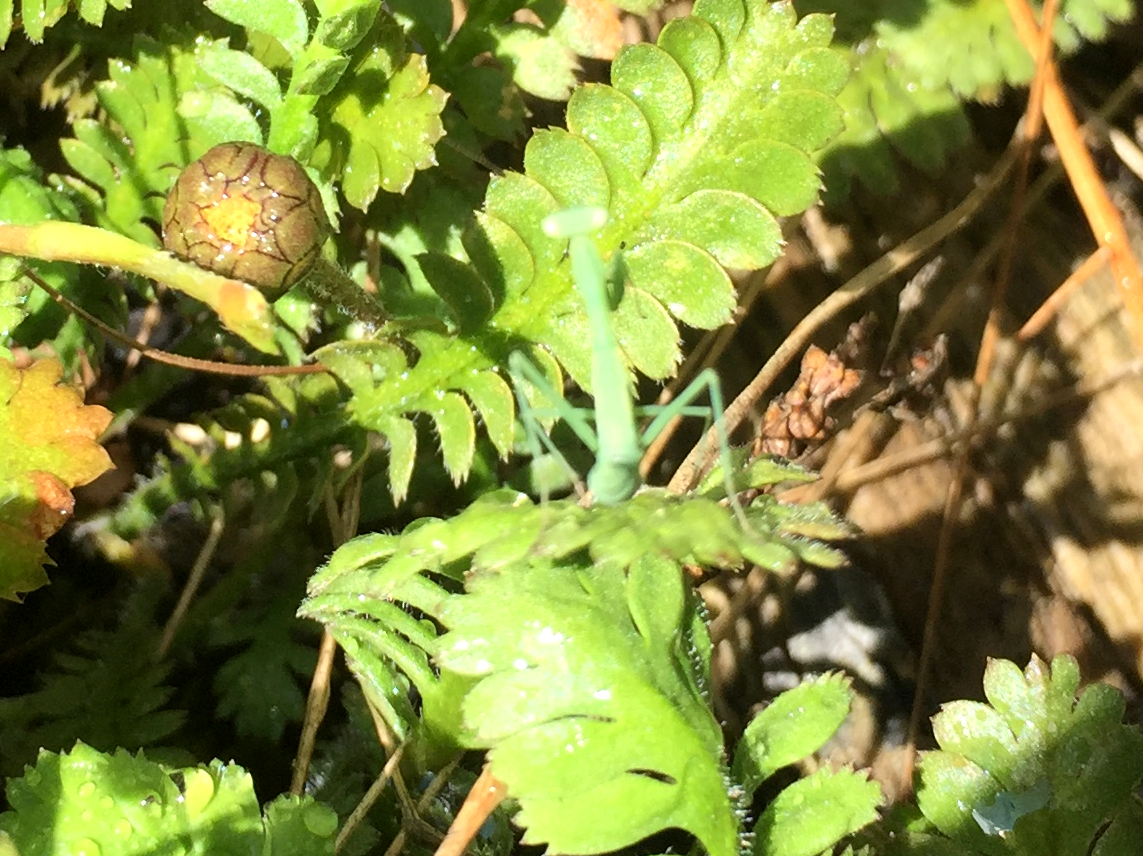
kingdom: Animalia
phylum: Arthropoda
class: Insecta
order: Mantodea
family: Miomantidae
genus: Miomantis
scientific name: Miomantis caffra
